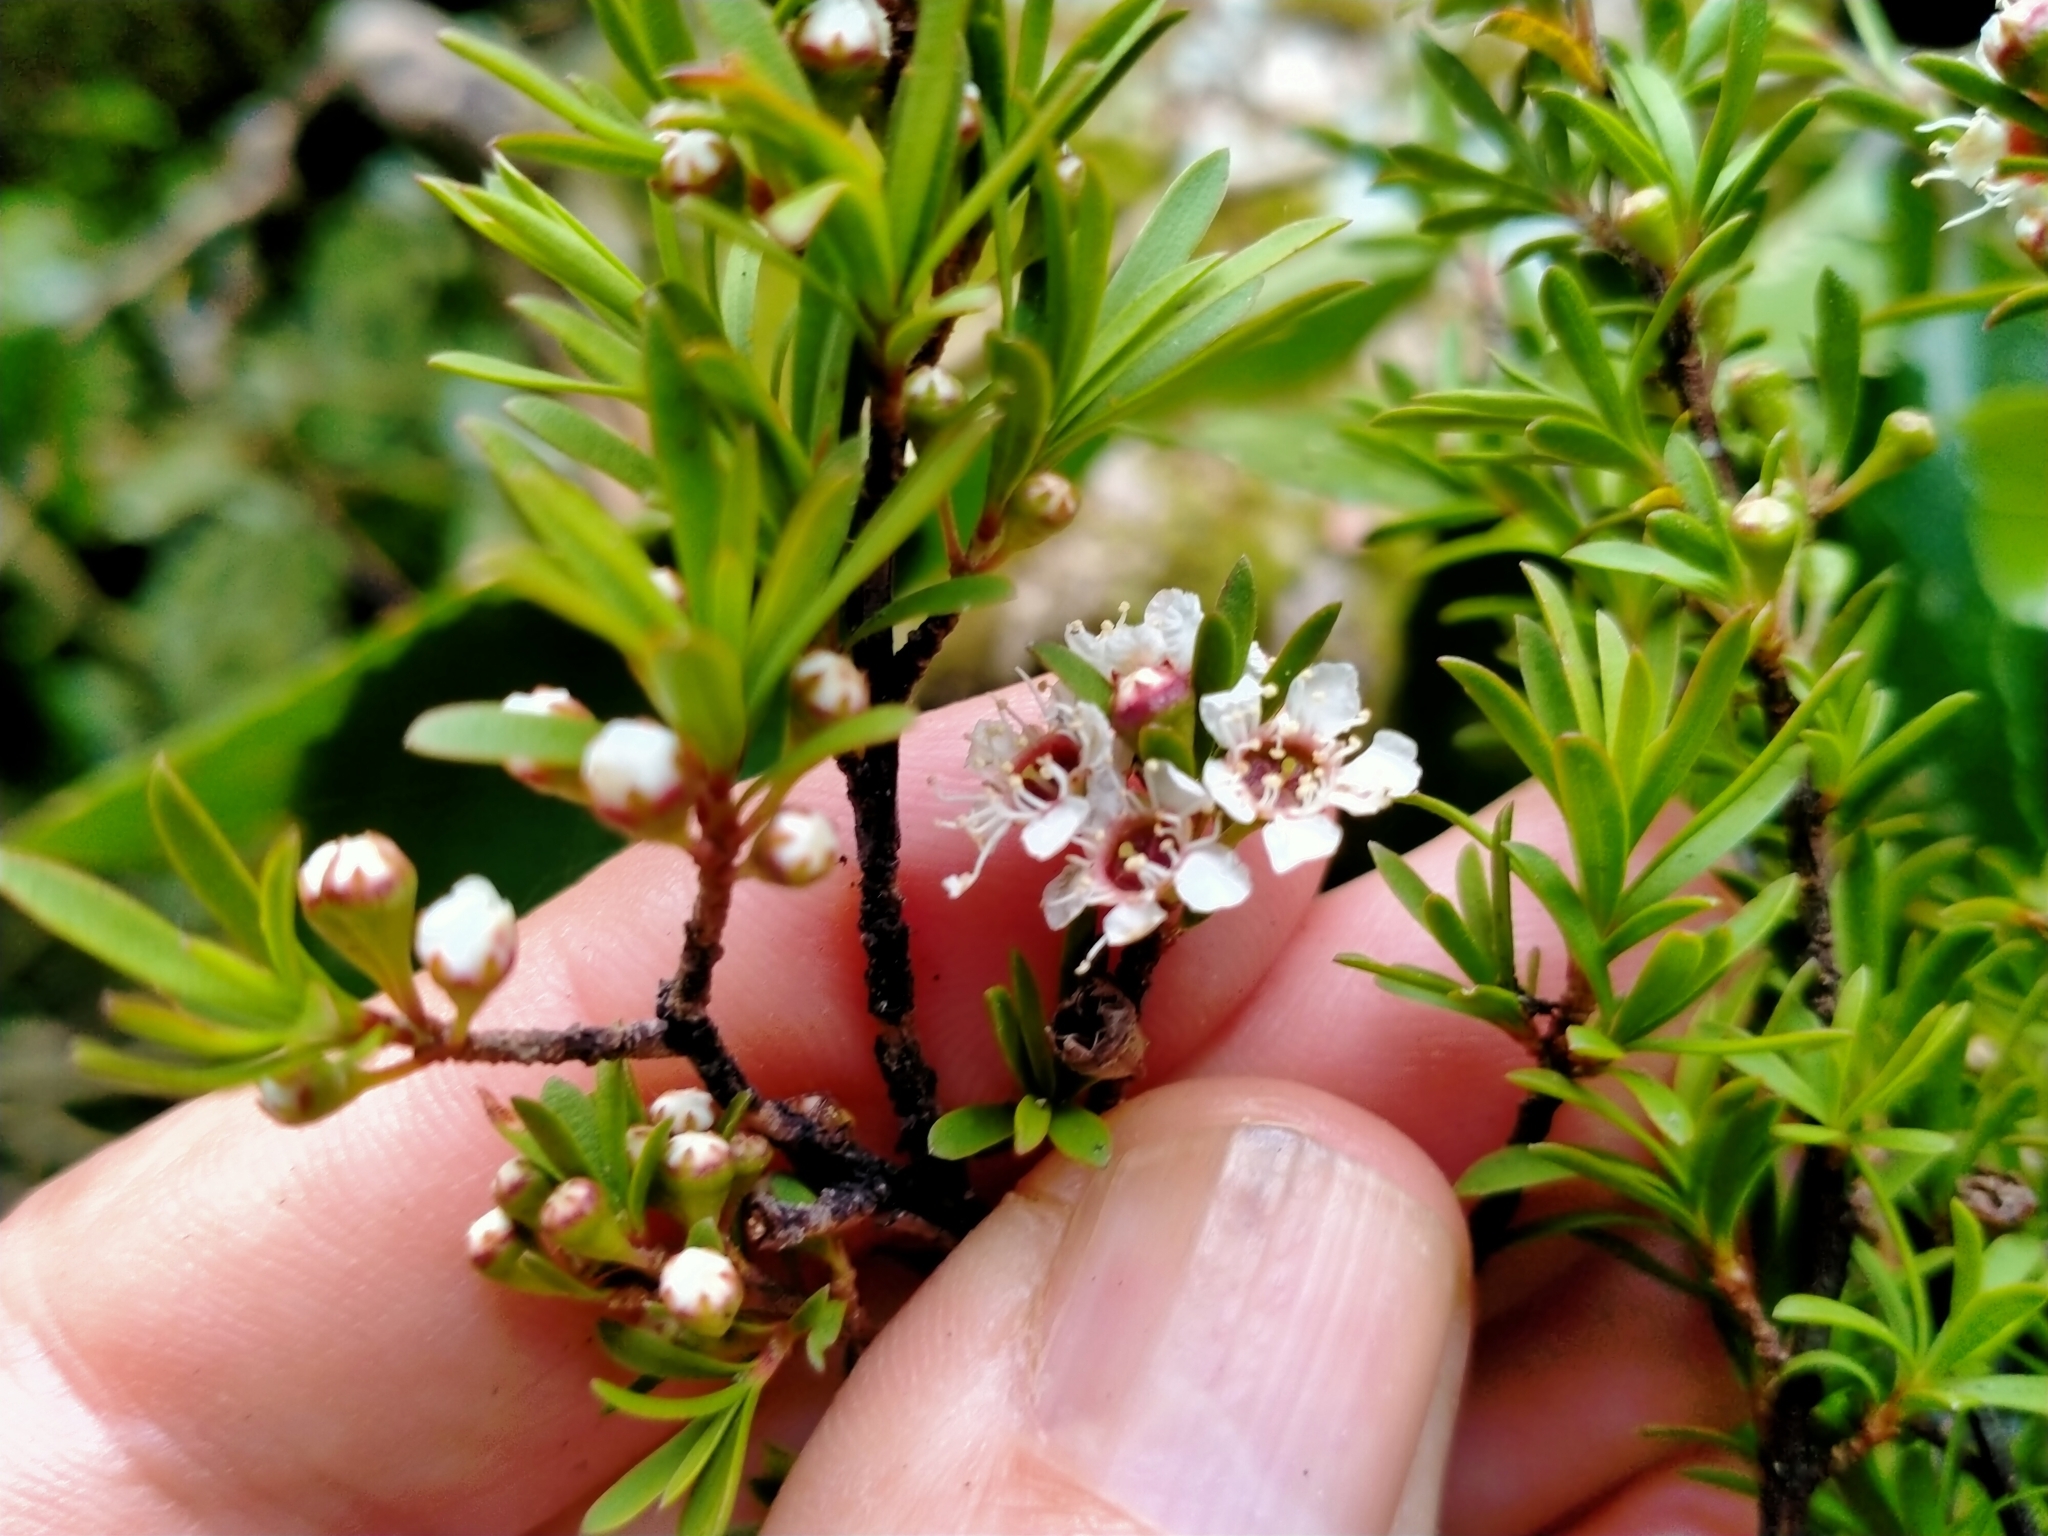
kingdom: Plantae
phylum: Tracheophyta
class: Magnoliopsida
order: Myrtales
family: Myrtaceae
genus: Kunzea
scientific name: Kunzea robusta
